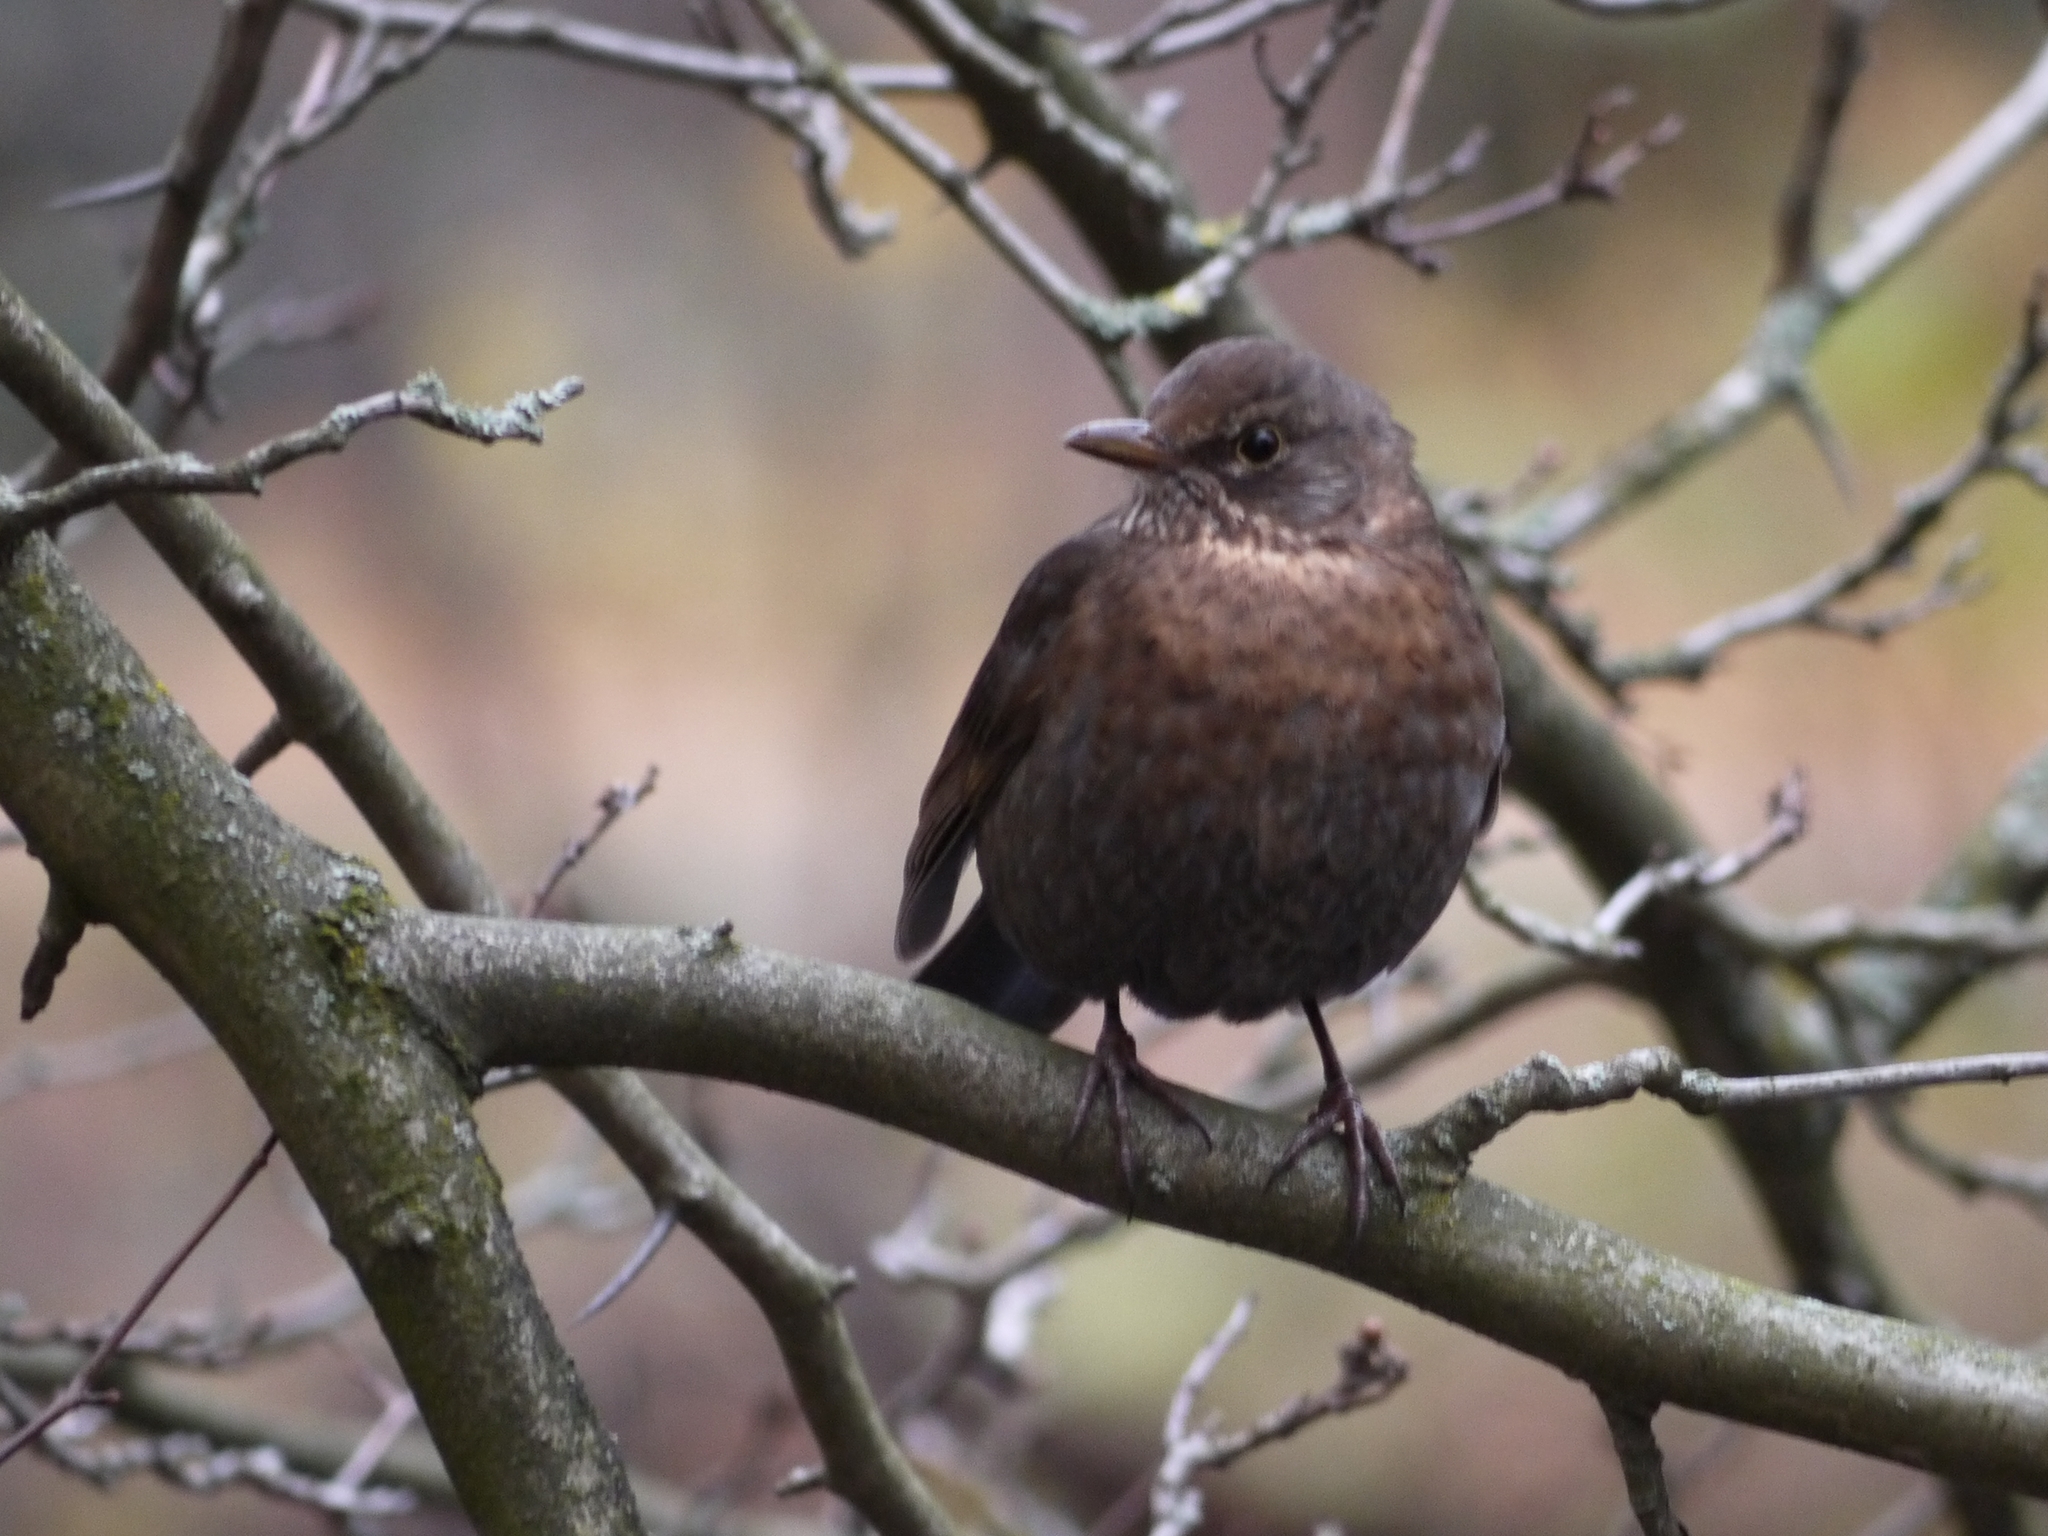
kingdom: Animalia
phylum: Chordata
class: Aves
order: Passeriformes
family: Turdidae
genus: Turdus
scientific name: Turdus merula
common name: Common blackbird
